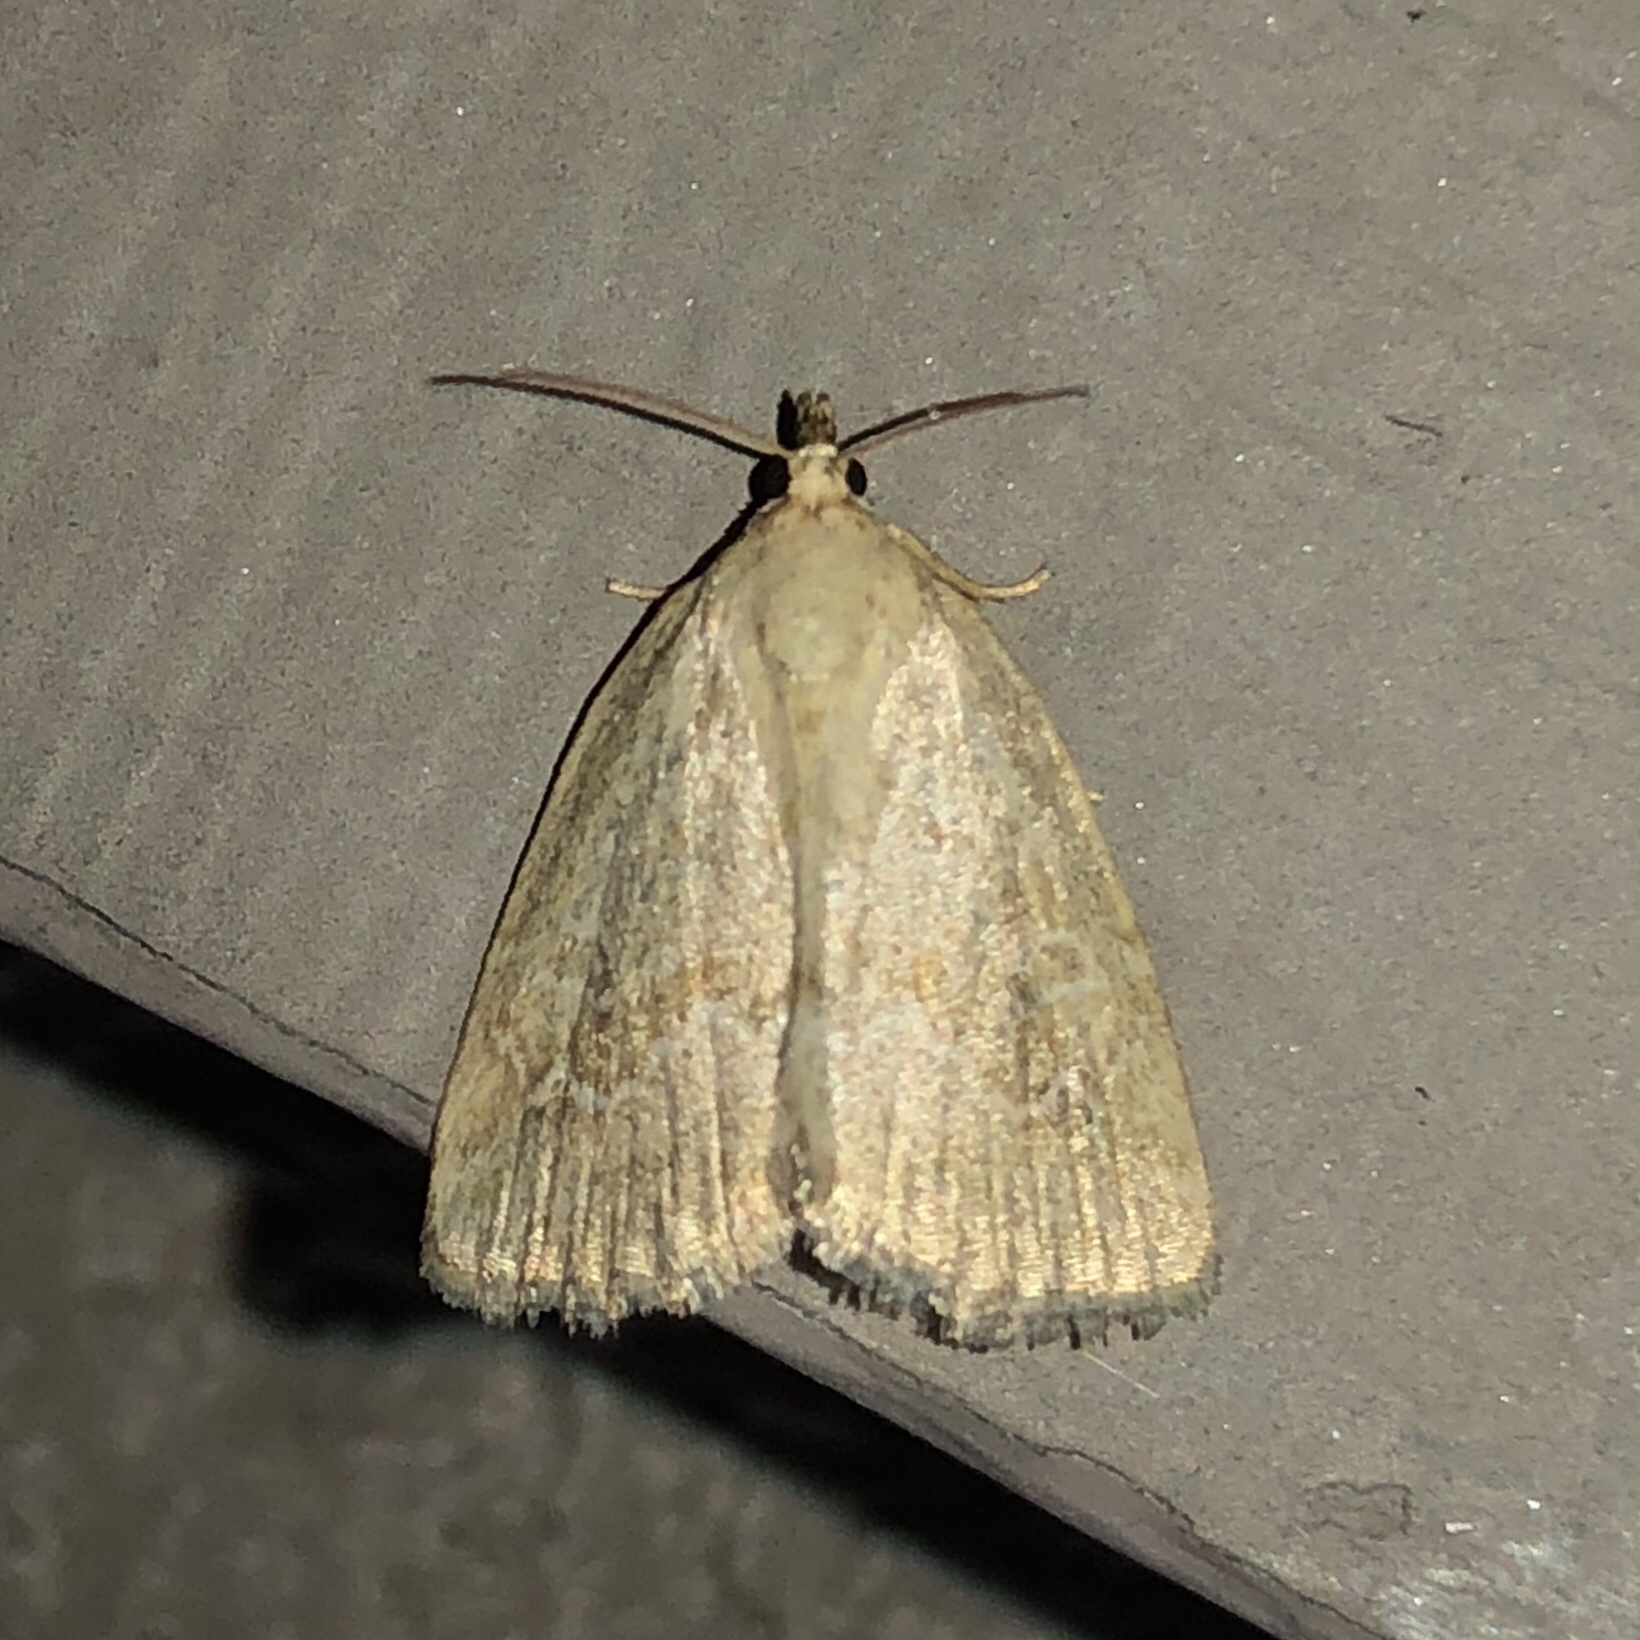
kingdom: Animalia
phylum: Arthropoda
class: Insecta
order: Lepidoptera
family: Noctuidae
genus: Protodeltote
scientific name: Protodeltote albidula
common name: Pale glyph
